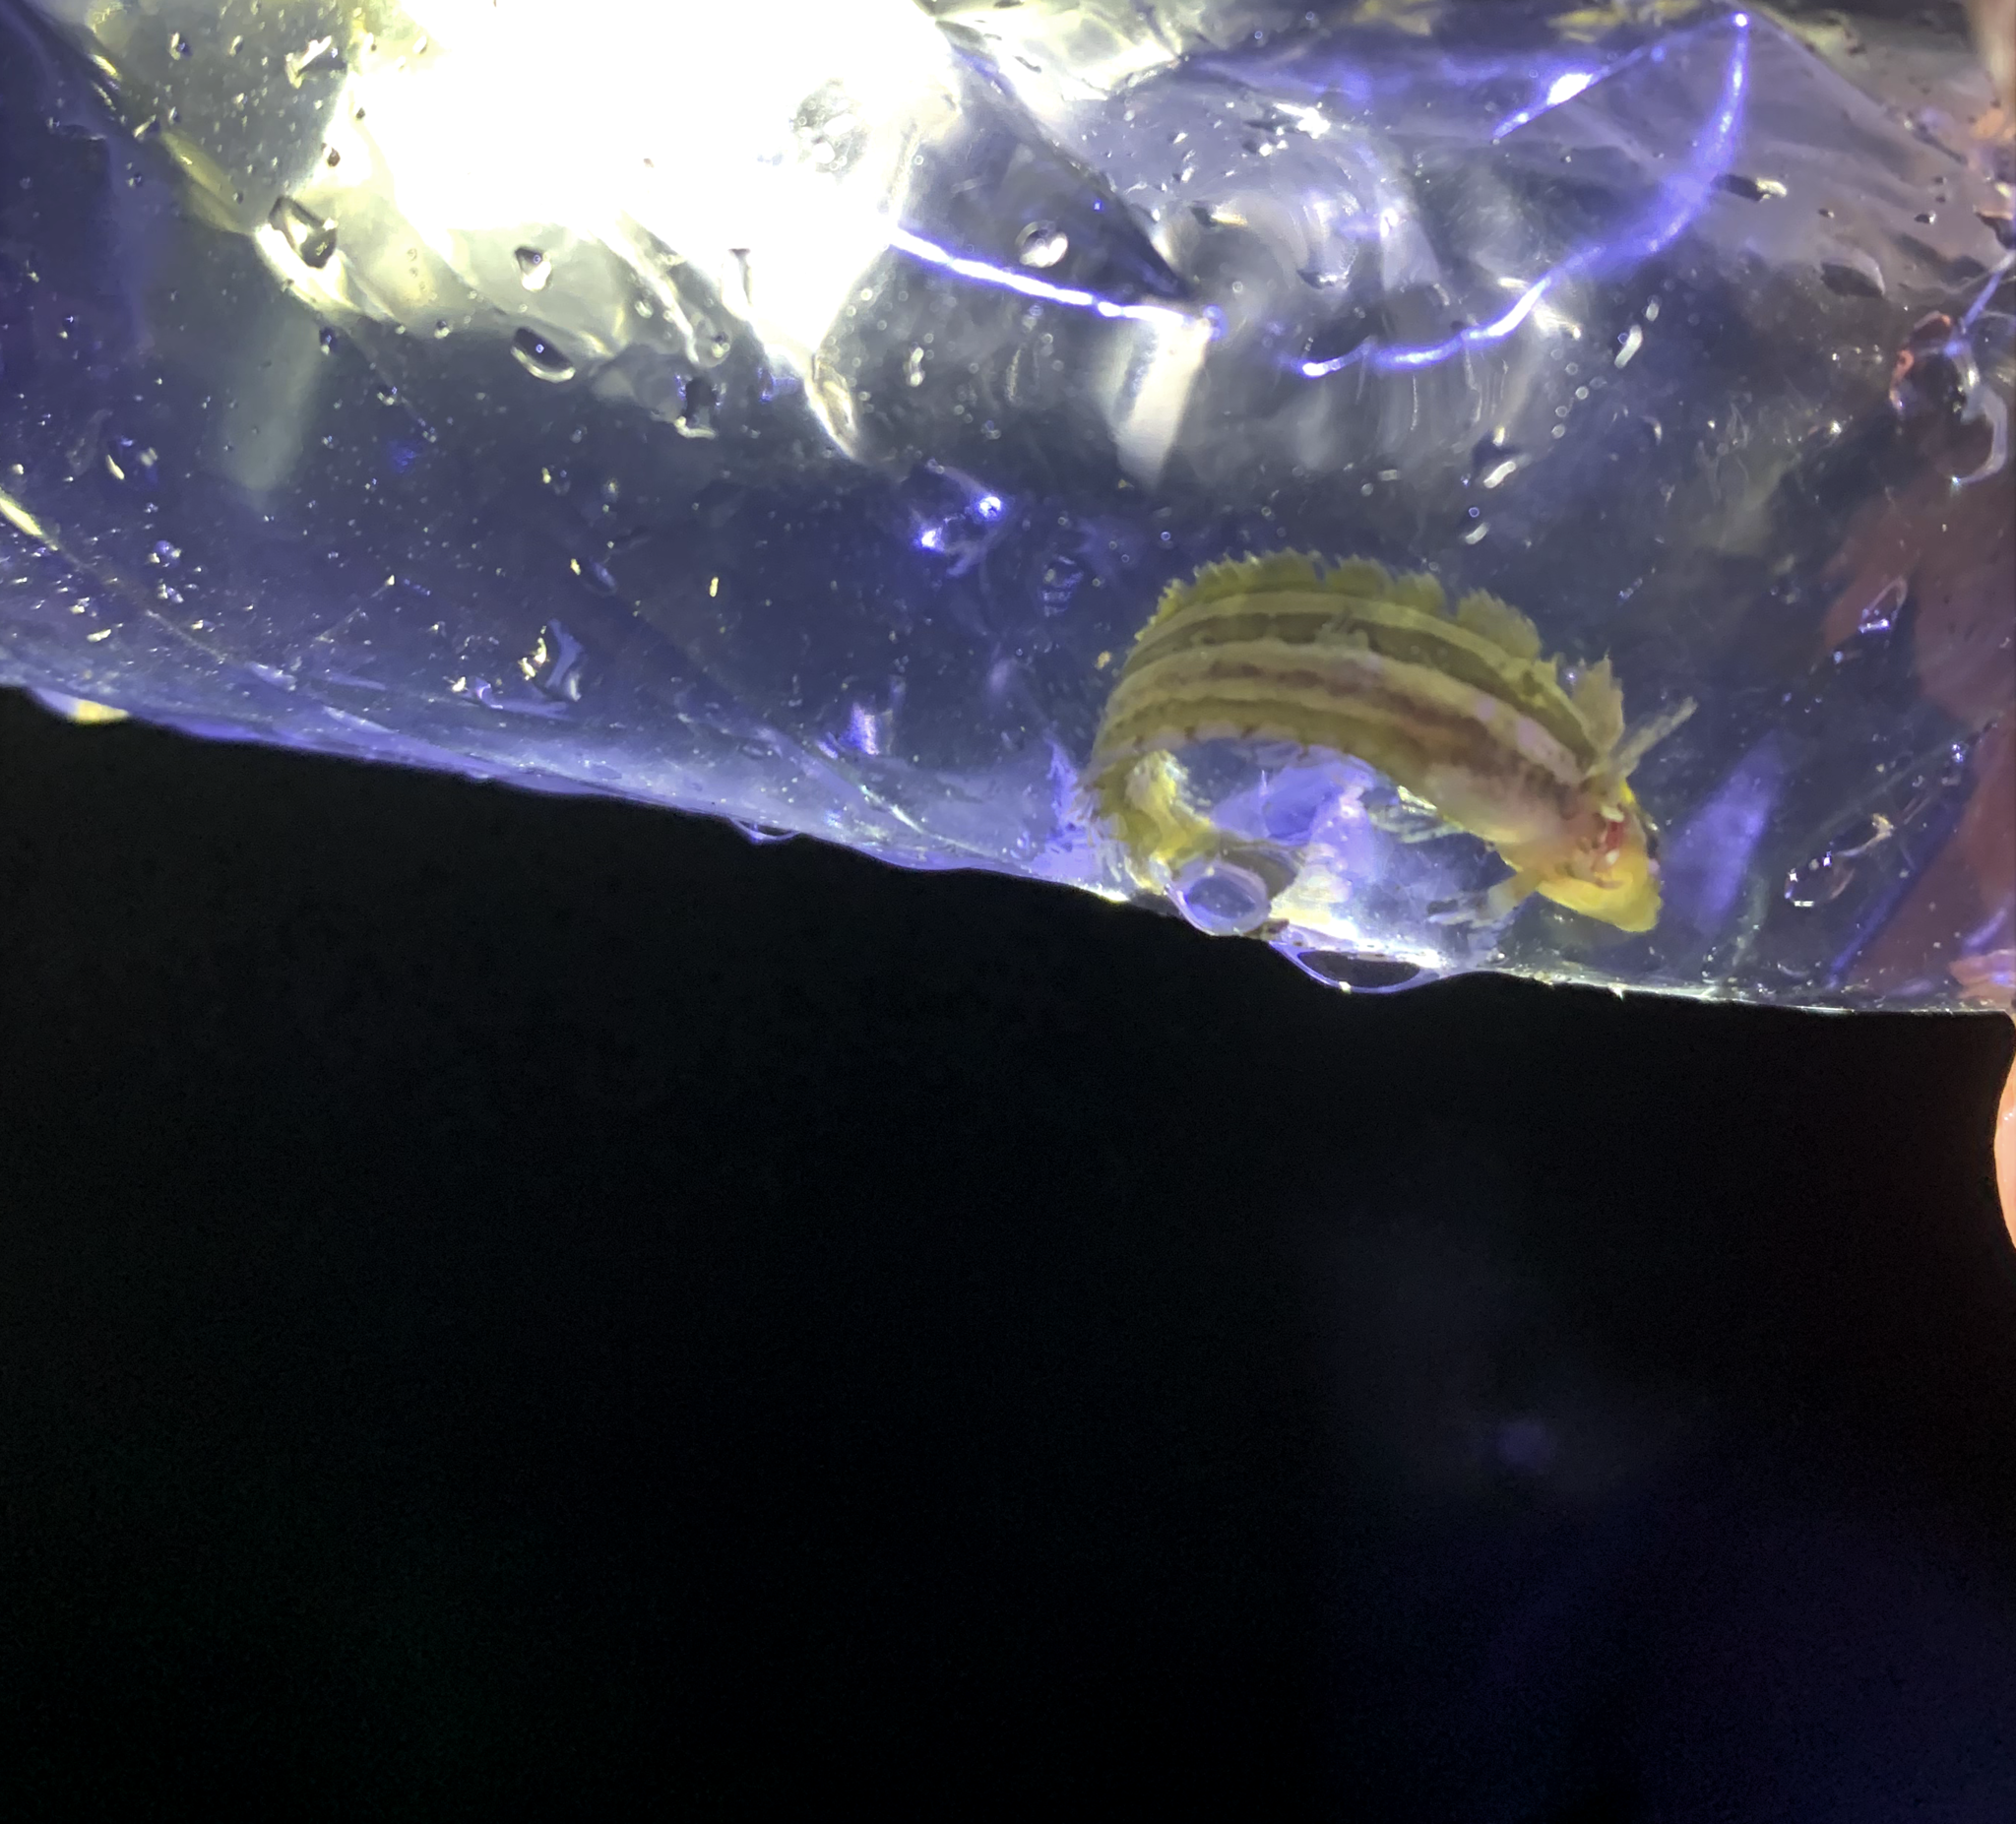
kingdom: Animalia
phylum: Chordata
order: Perciformes
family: Clinidae
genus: Gibbonsia
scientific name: Gibbonsia metzi
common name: Striped kelpfish
